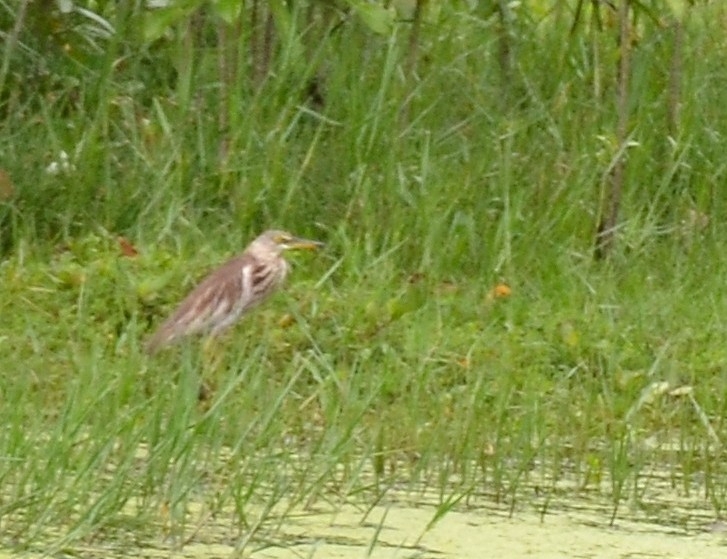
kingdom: Animalia
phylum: Chordata
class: Aves
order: Pelecaniformes
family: Ardeidae
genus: Ardeola
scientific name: Ardeola grayii
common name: Indian pond heron
